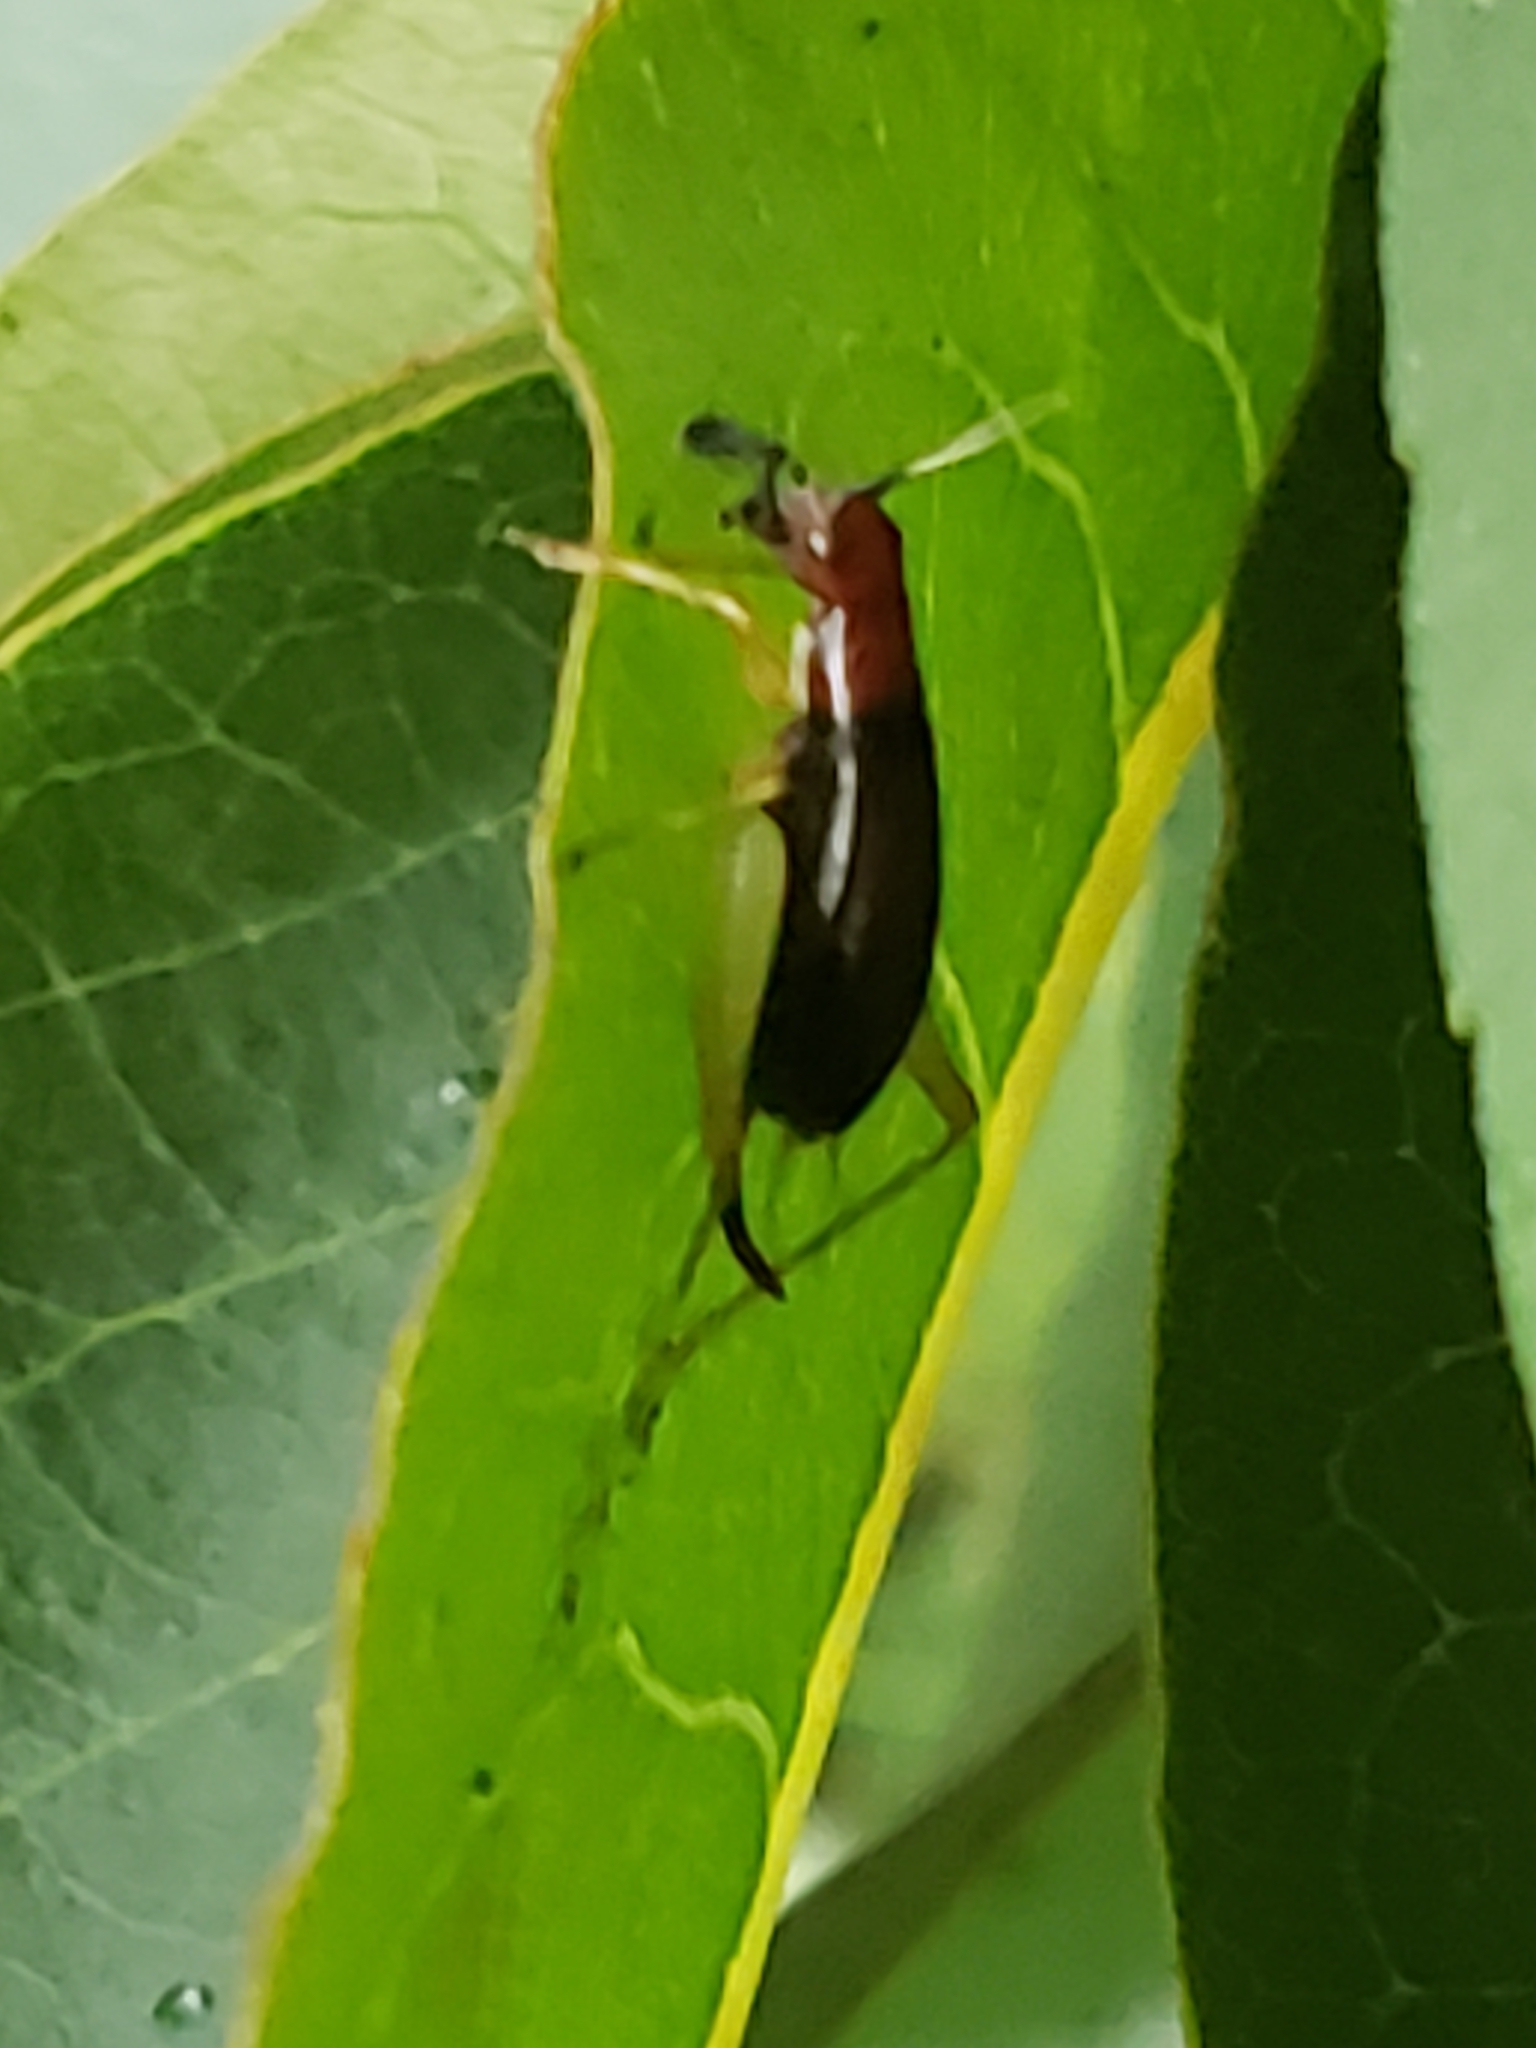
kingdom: Animalia
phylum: Arthropoda
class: Insecta
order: Orthoptera
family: Trigonidiidae
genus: Phyllopalpus
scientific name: Phyllopalpus pulchellus
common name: Handsome trig
